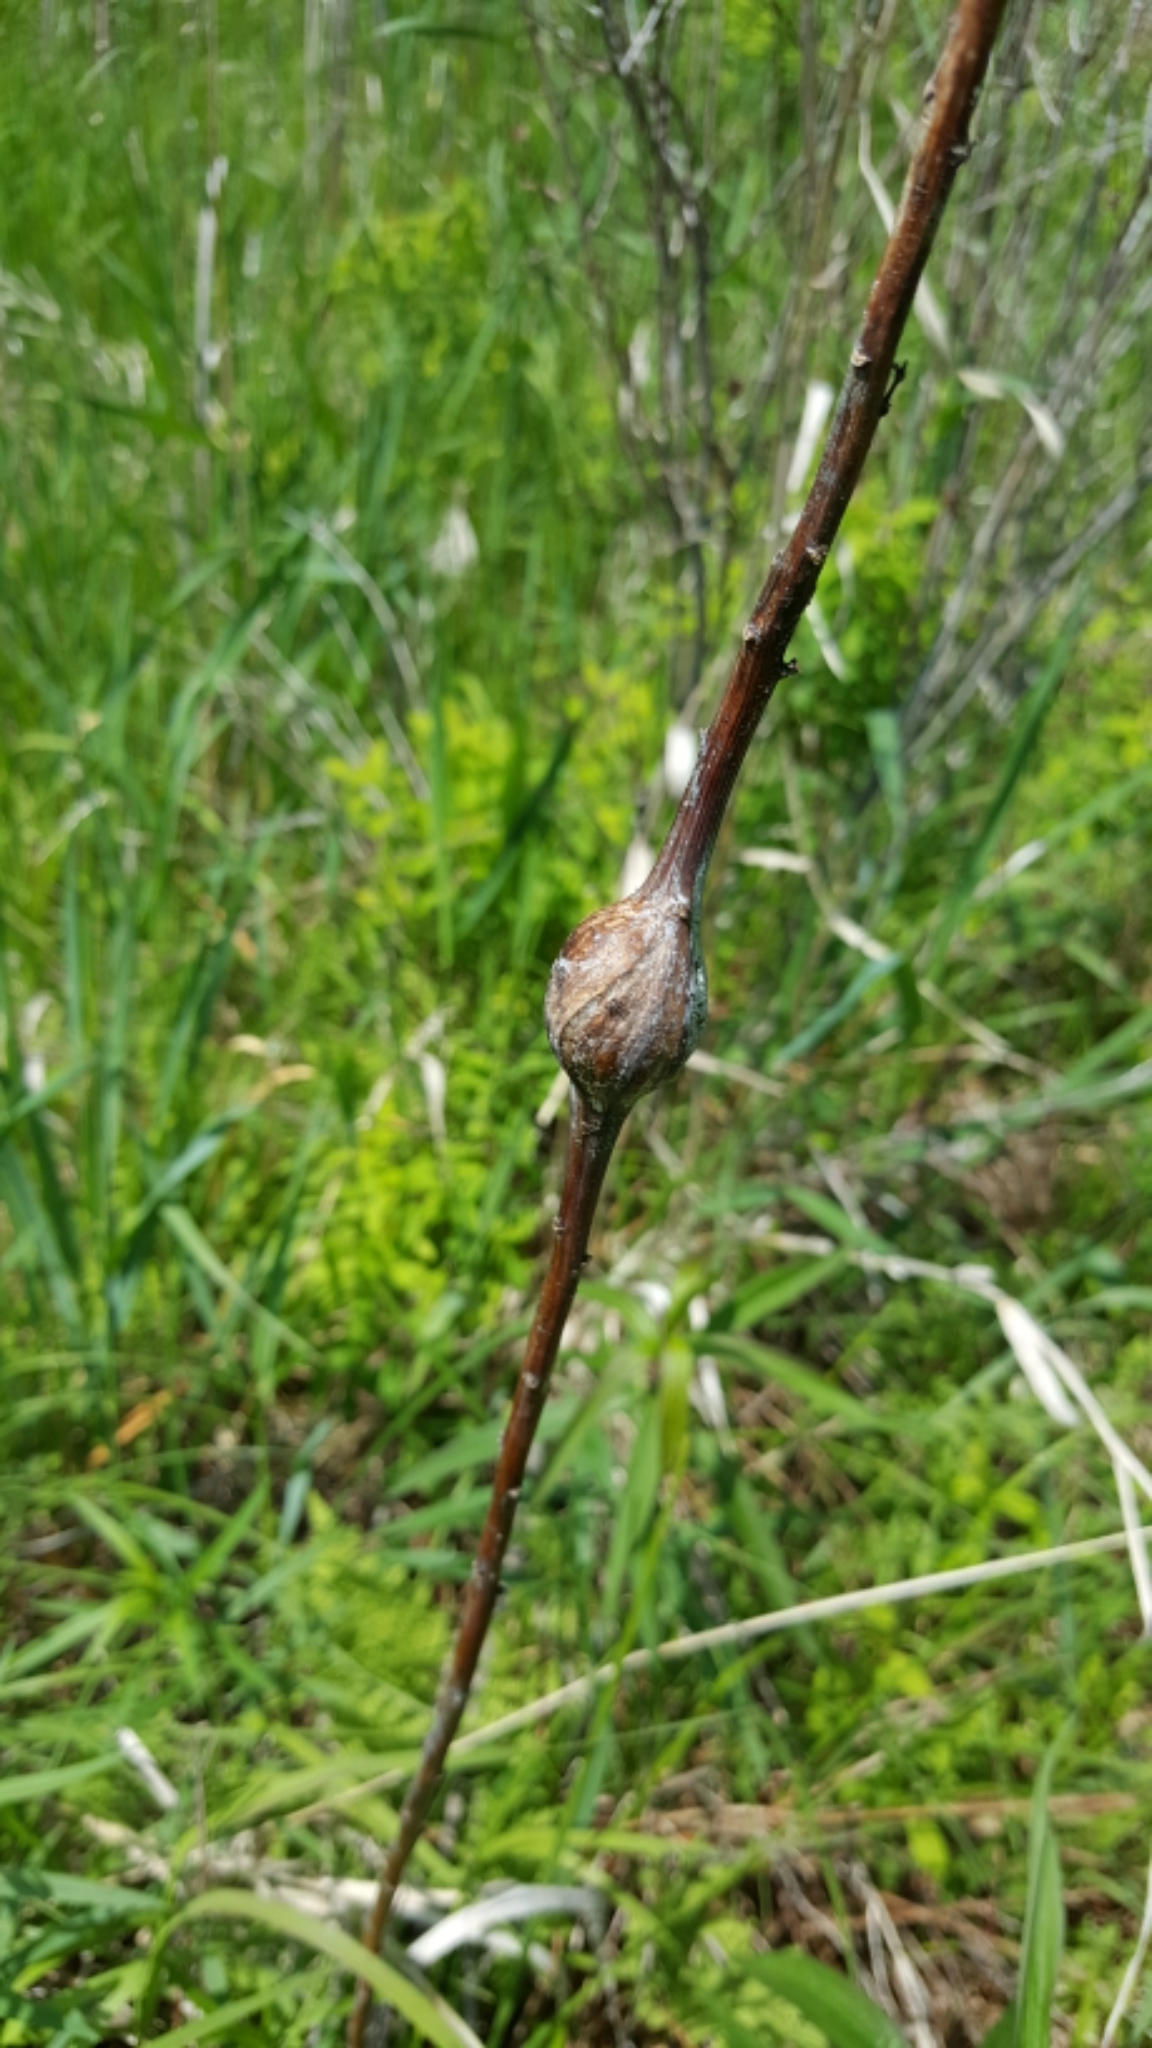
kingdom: Animalia
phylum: Arthropoda
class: Insecta
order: Diptera
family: Tephritidae
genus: Eurosta
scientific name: Eurosta solidaginis
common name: Goldenrod gall fly
